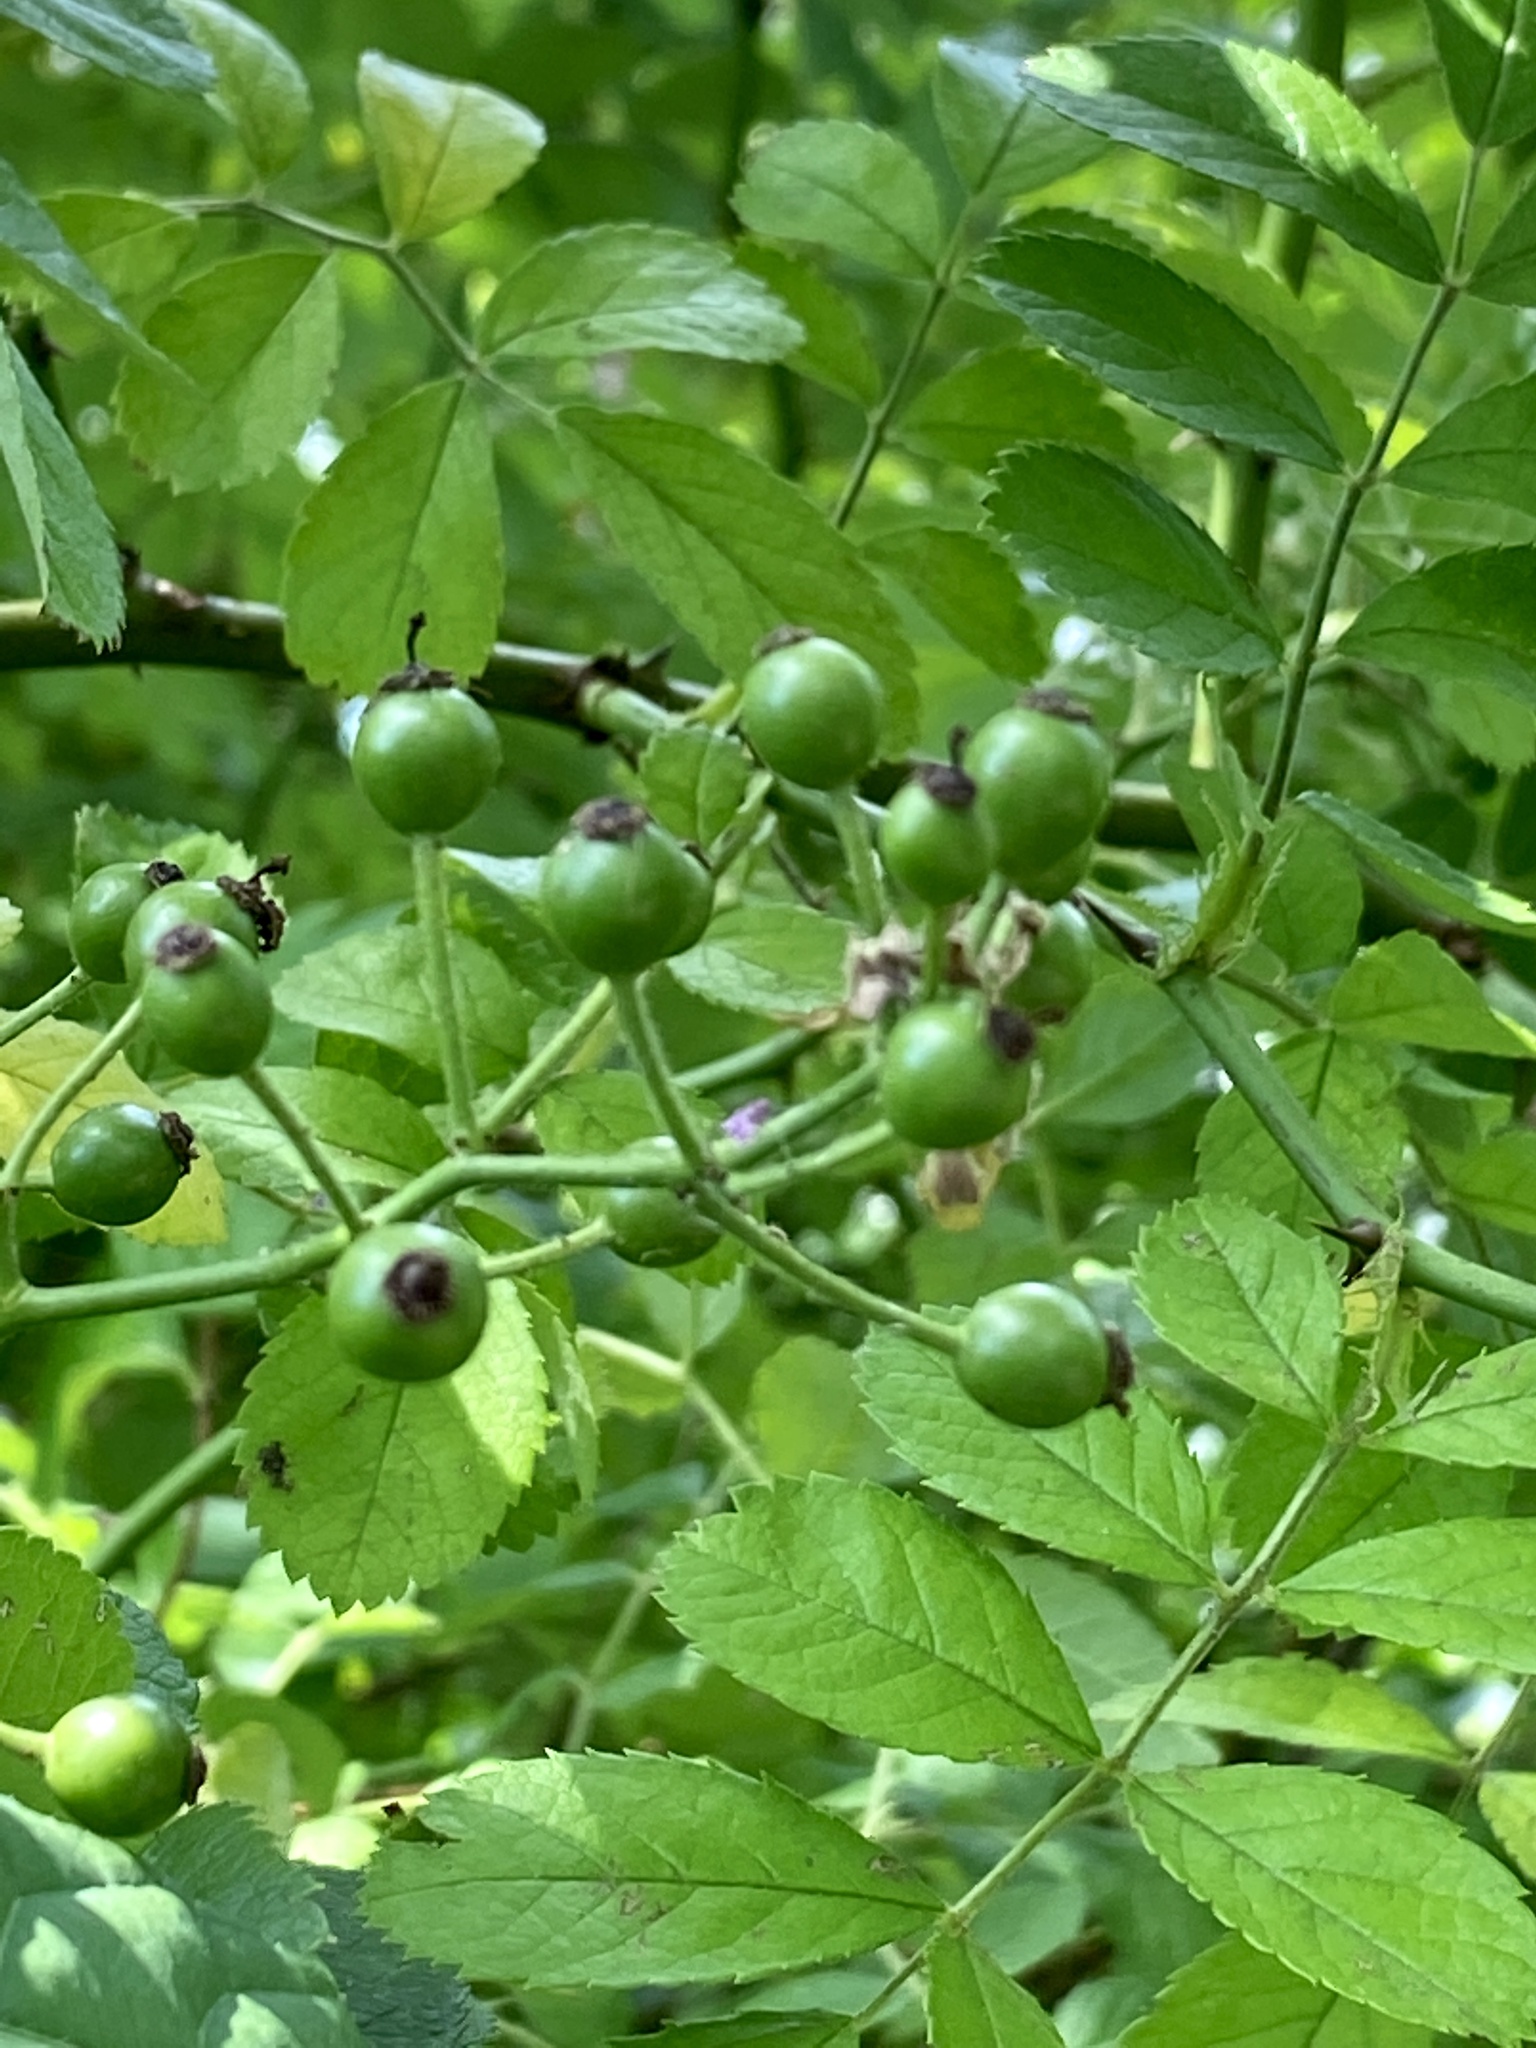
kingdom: Plantae
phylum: Tracheophyta
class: Magnoliopsida
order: Rosales
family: Rosaceae
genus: Rosa
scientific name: Rosa multiflora
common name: Multiflora rose
